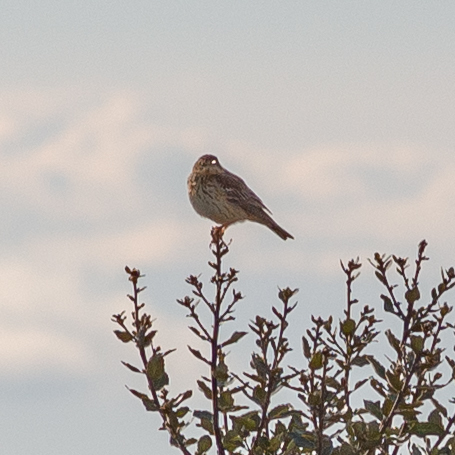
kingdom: Animalia
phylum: Chordata
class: Aves
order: Passeriformes
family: Motacillidae
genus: Anthus
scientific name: Anthus trivialis
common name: Tree pipit
